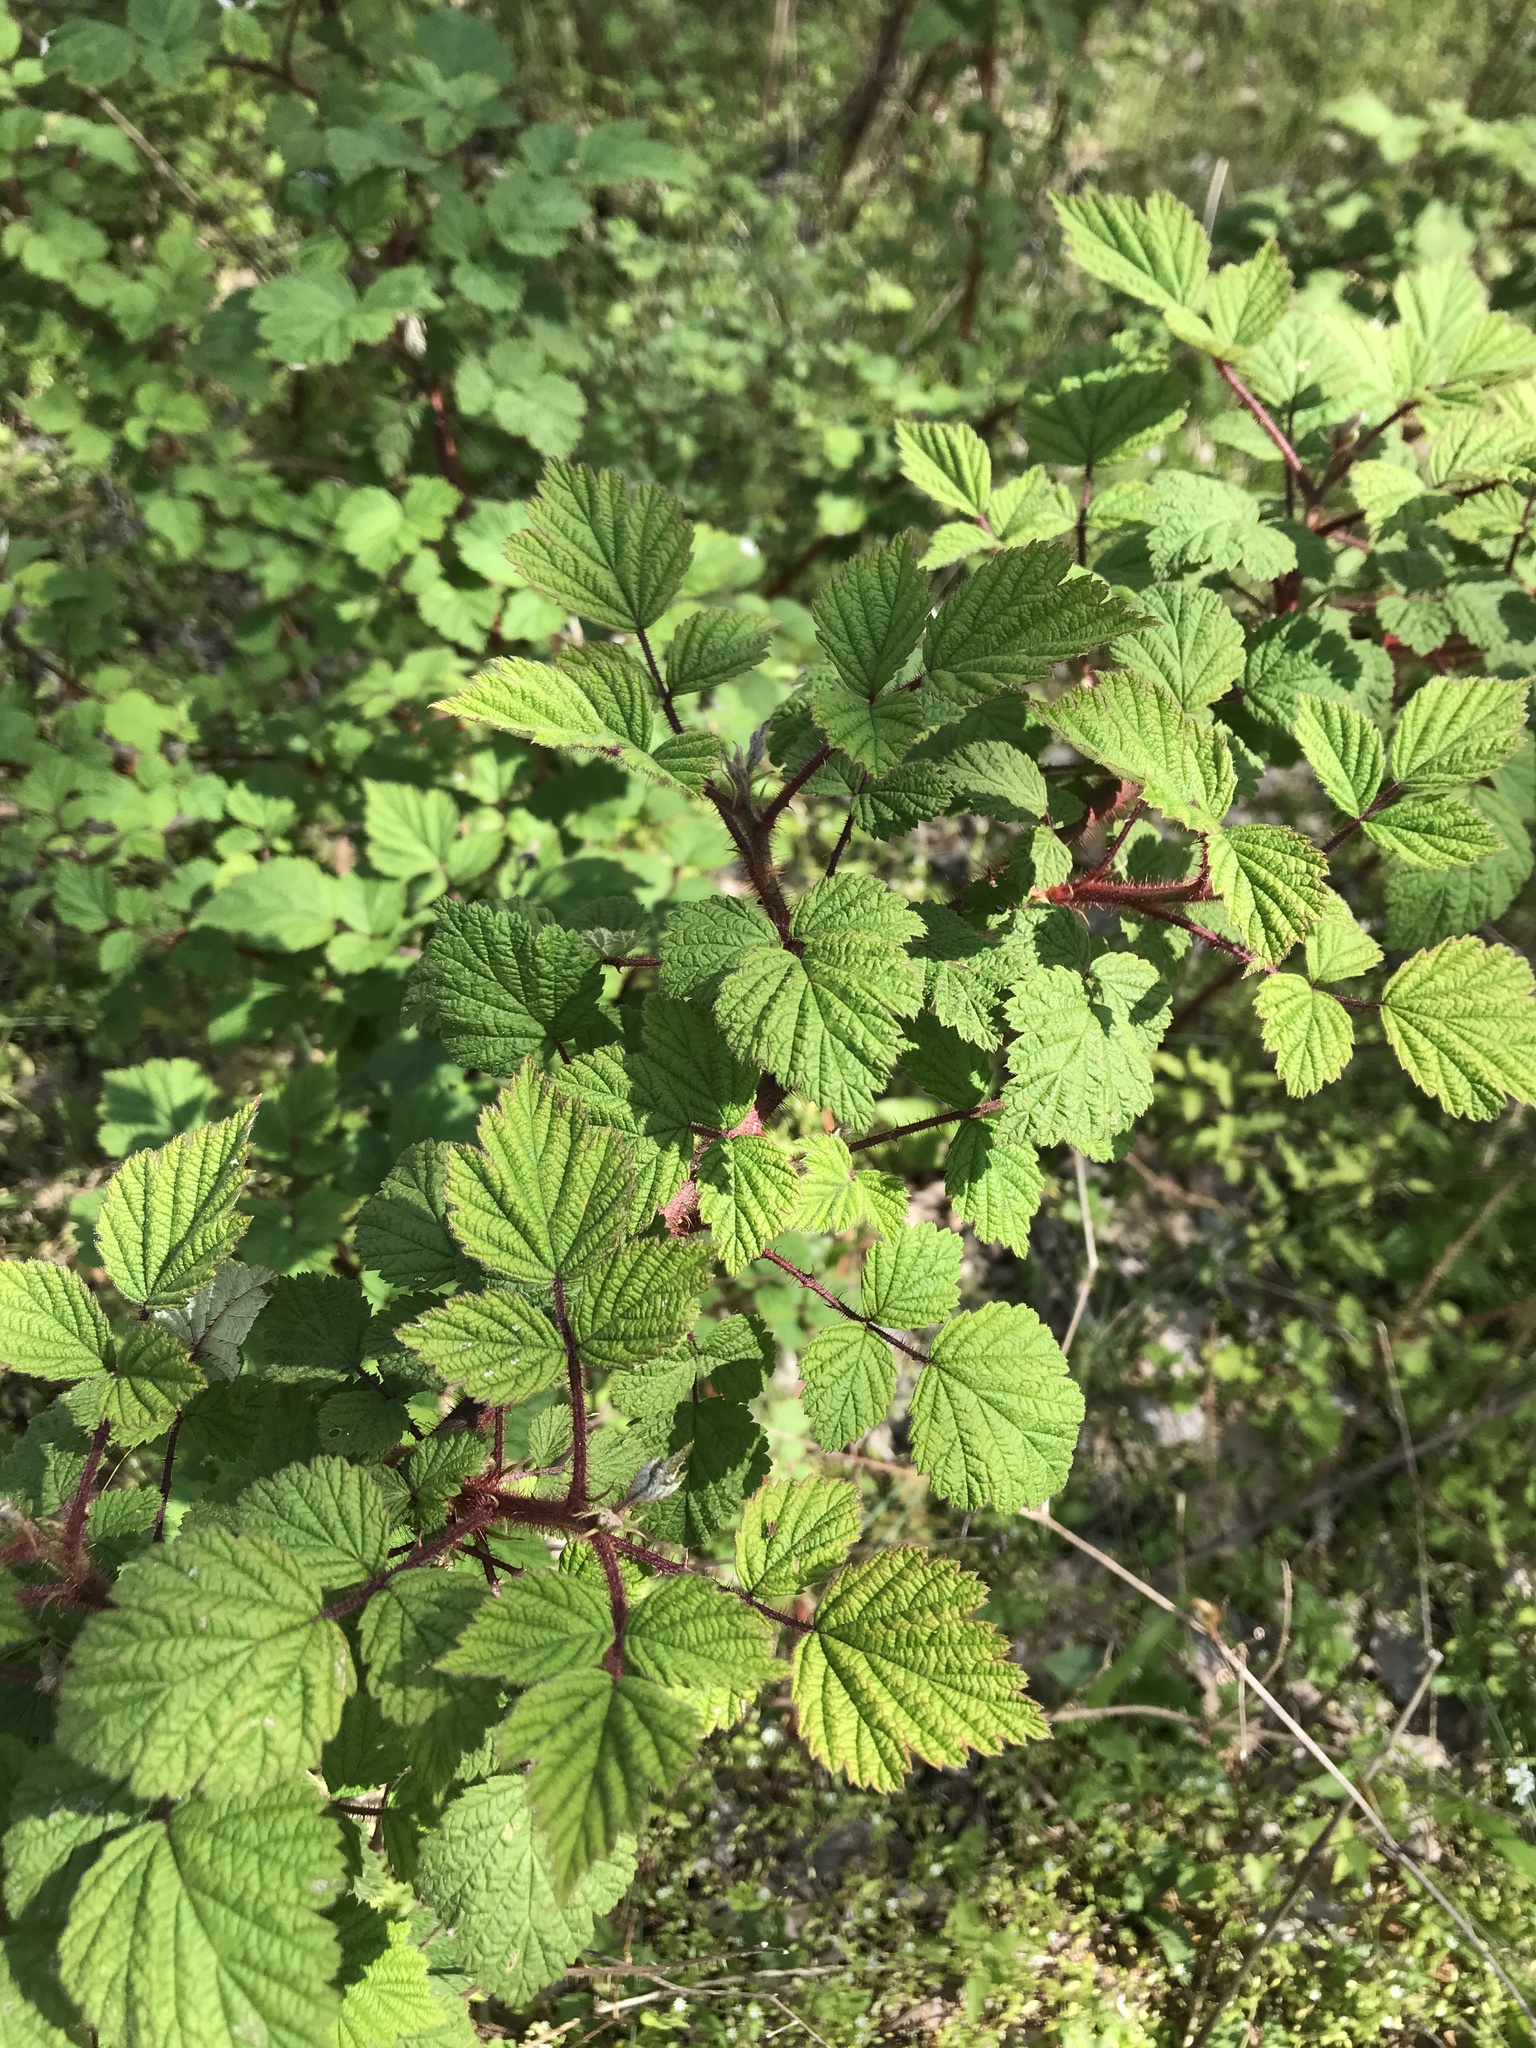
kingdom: Plantae
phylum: Tracheophyta
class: Magnoliopsida
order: Rosales
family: Rosaceae
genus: Rubus
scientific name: Rubus phoenicolasius
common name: Japanese wineberry
